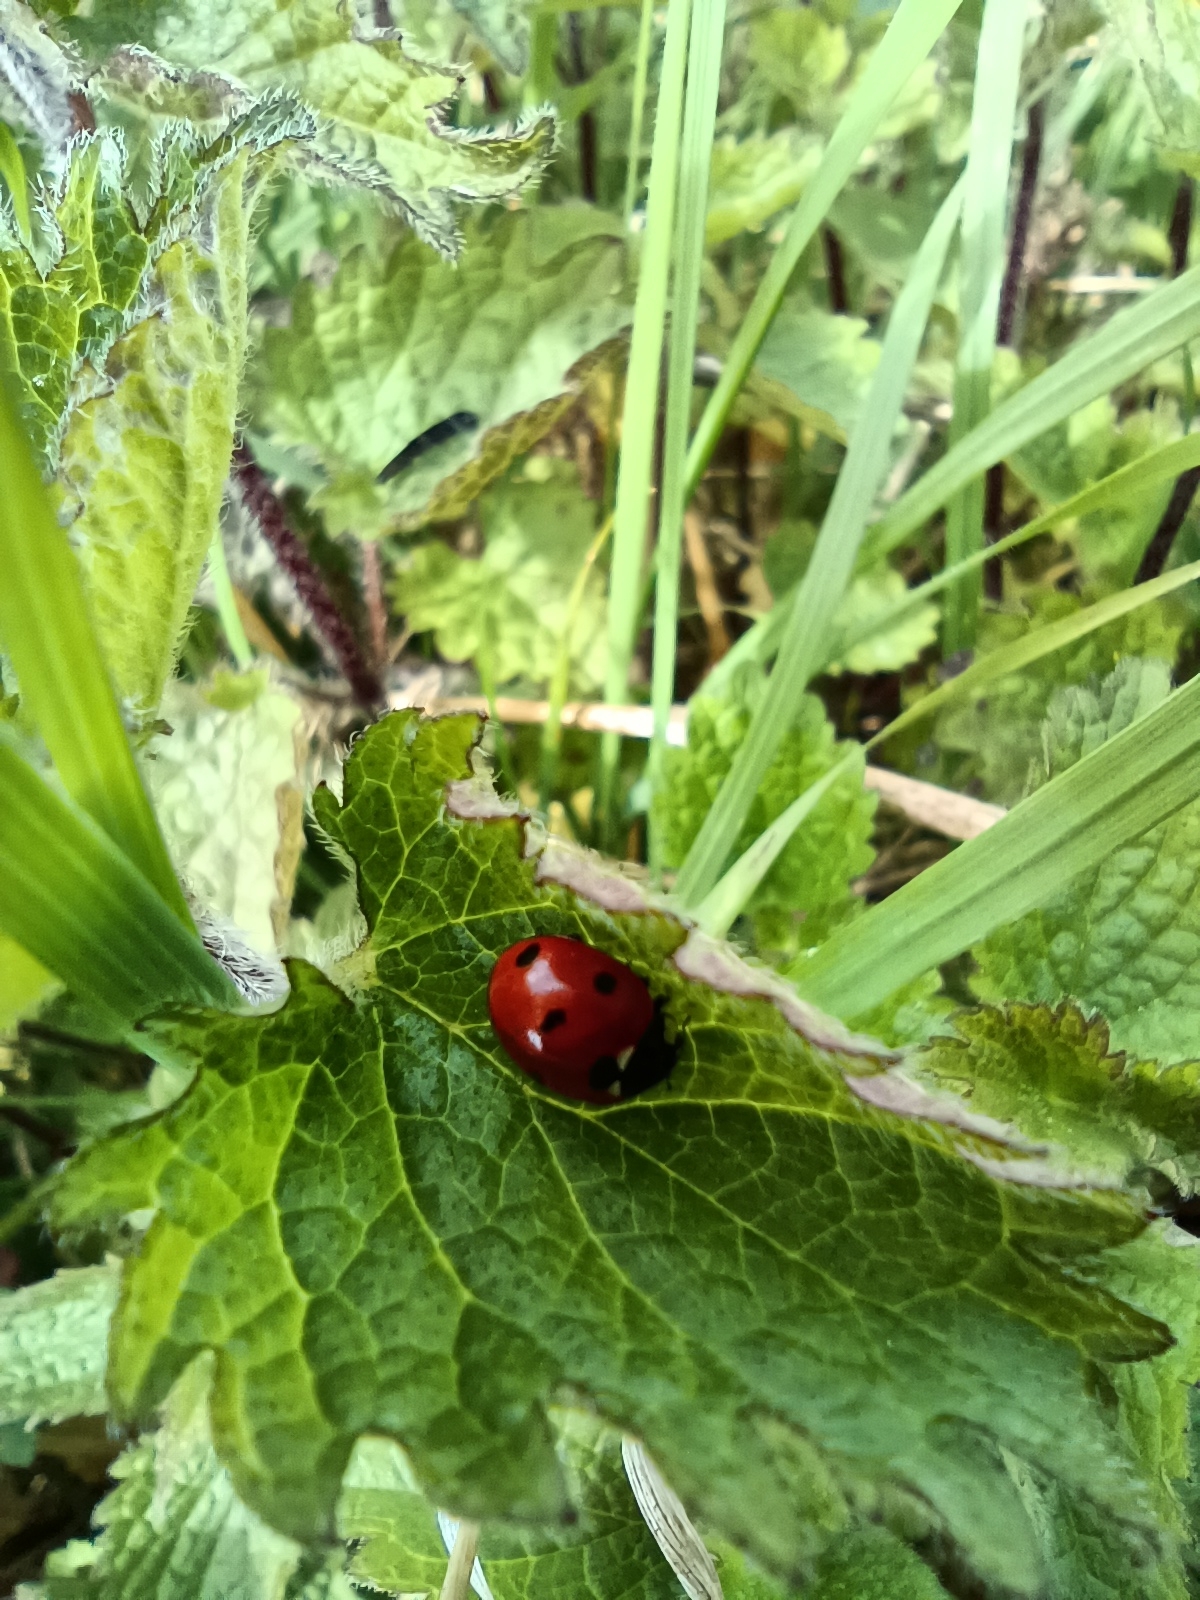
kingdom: Animalia
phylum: Arthropoda
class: Insecta
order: Coleoptera
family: Coccinellidae
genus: Coccinella
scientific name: Coccinella septempunctata
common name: Sevenspotted lady beetle
